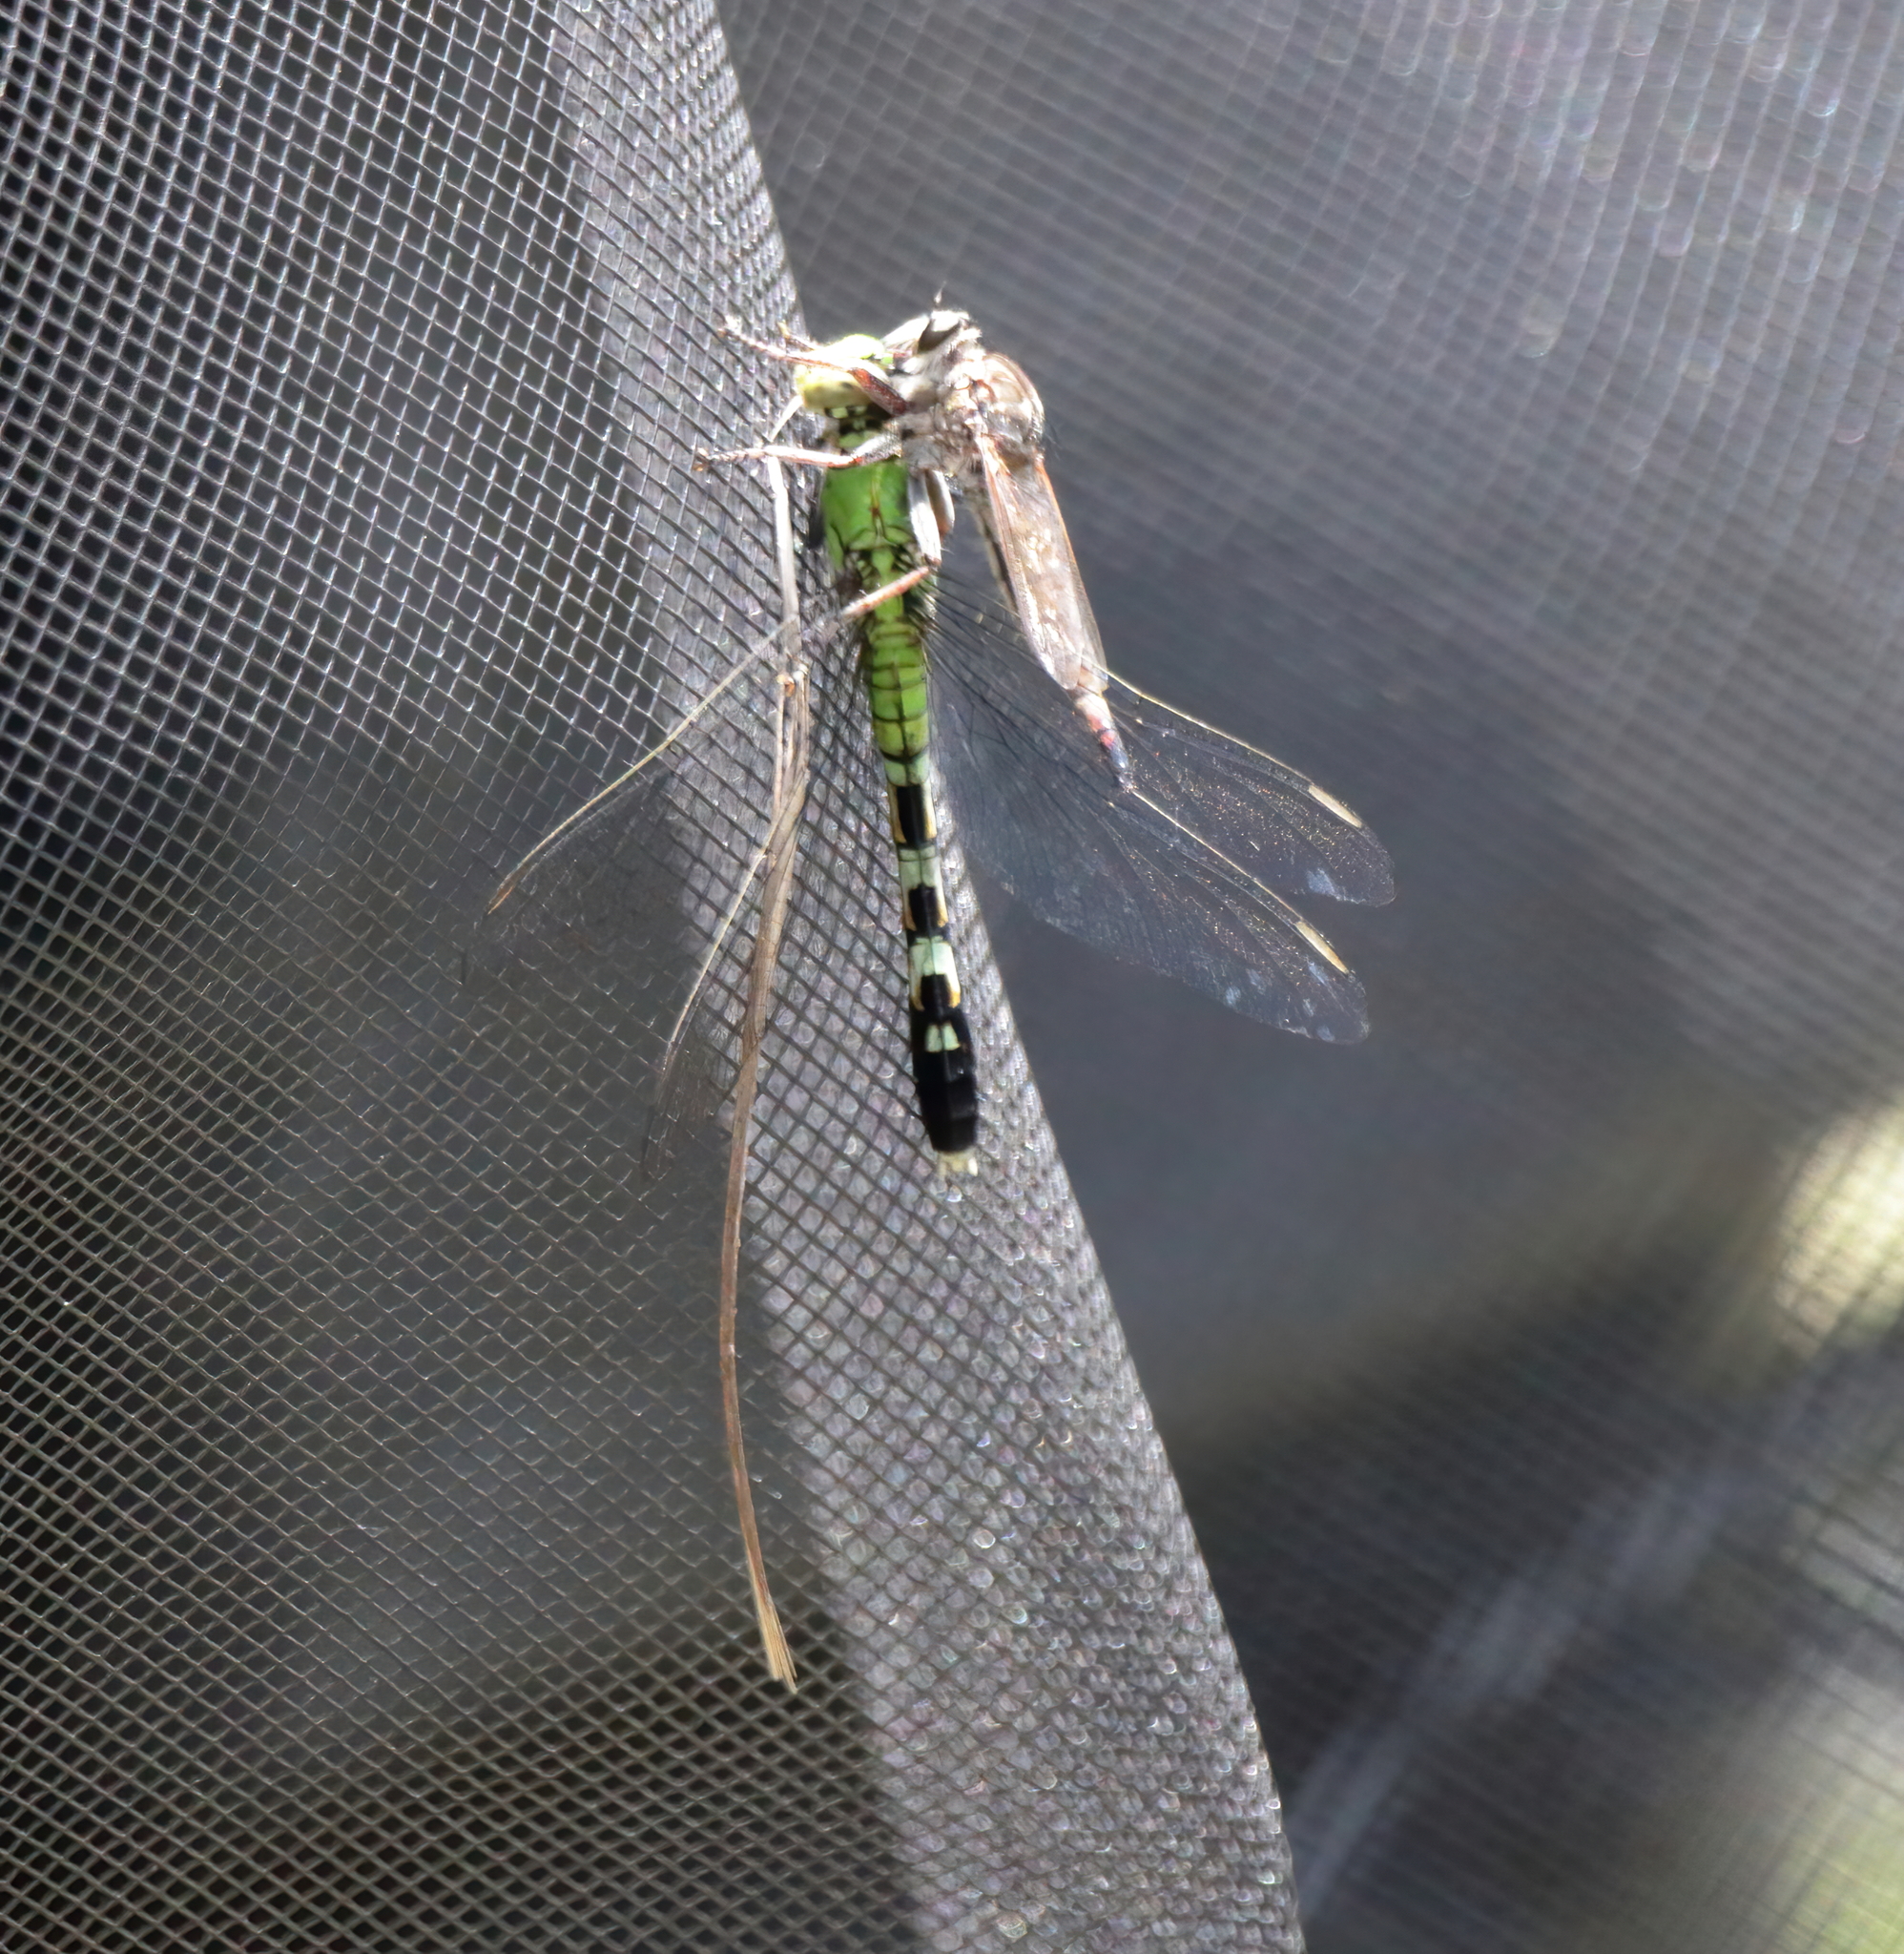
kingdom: Animalia
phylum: Arthropoda
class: Insecta
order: Odonata
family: Libellulidae
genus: Erythemis
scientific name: Erythemis simplicicollis
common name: Eastern pondhawk
